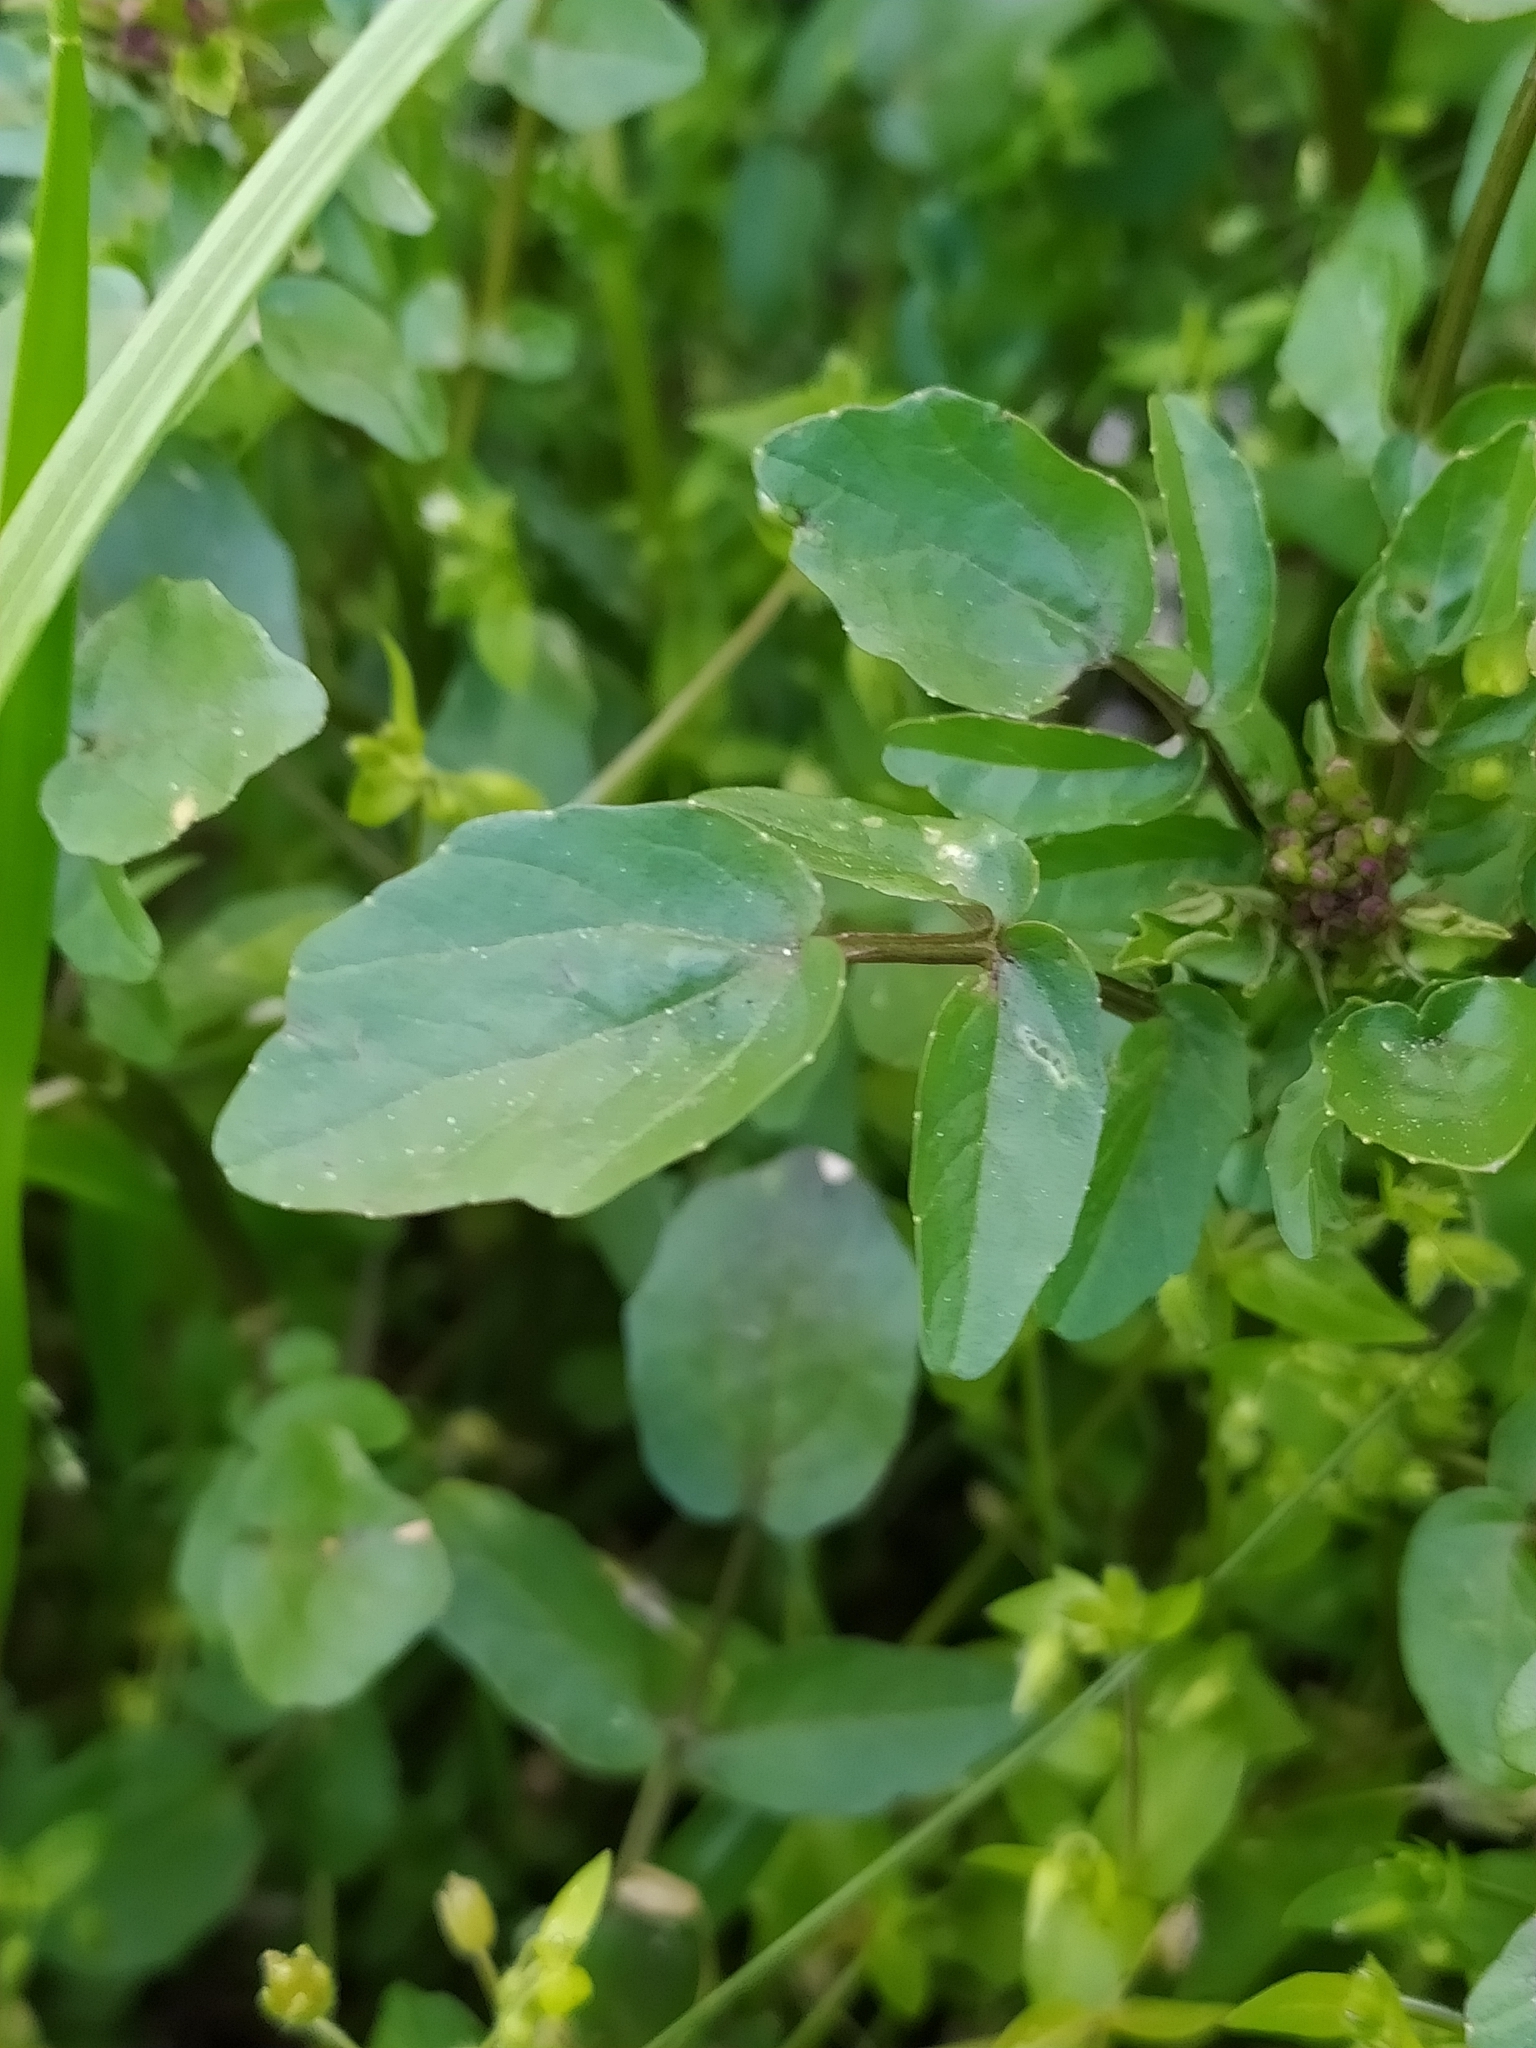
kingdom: Plantae
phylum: Tracheophyta
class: Magnoliopsida
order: Brassicales
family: Brassicaceae
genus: Nasturtium
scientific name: Nasturtium officinale
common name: Watercress
